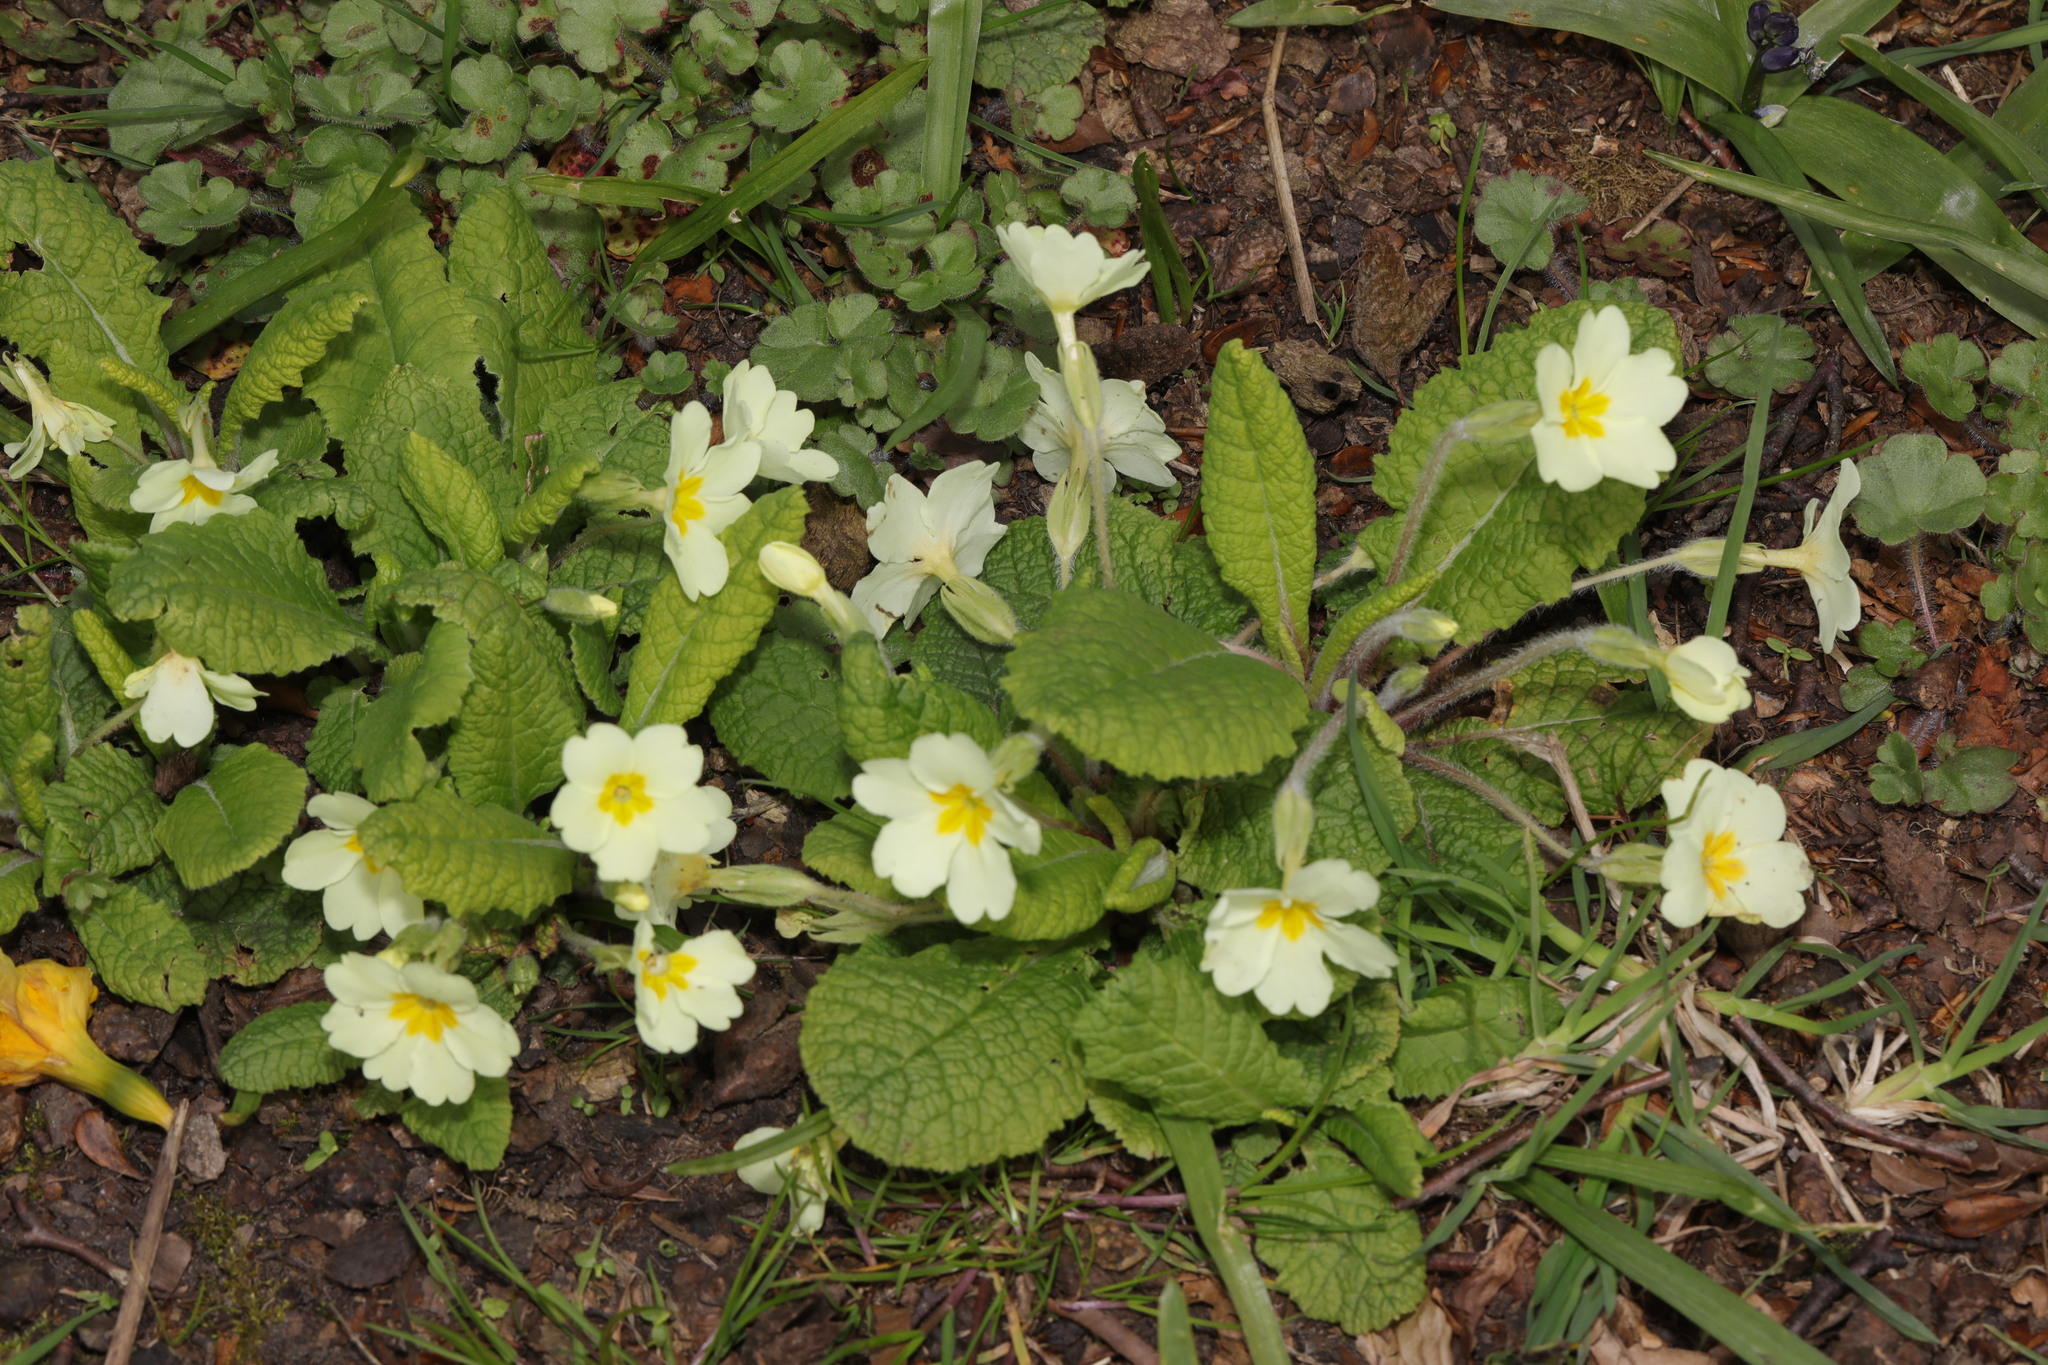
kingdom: Plantae
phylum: Tracheophyta
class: Magnoliopsida
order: Ericales
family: Primulaceae
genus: Primula
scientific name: Primula vulgaris
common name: Primrose
